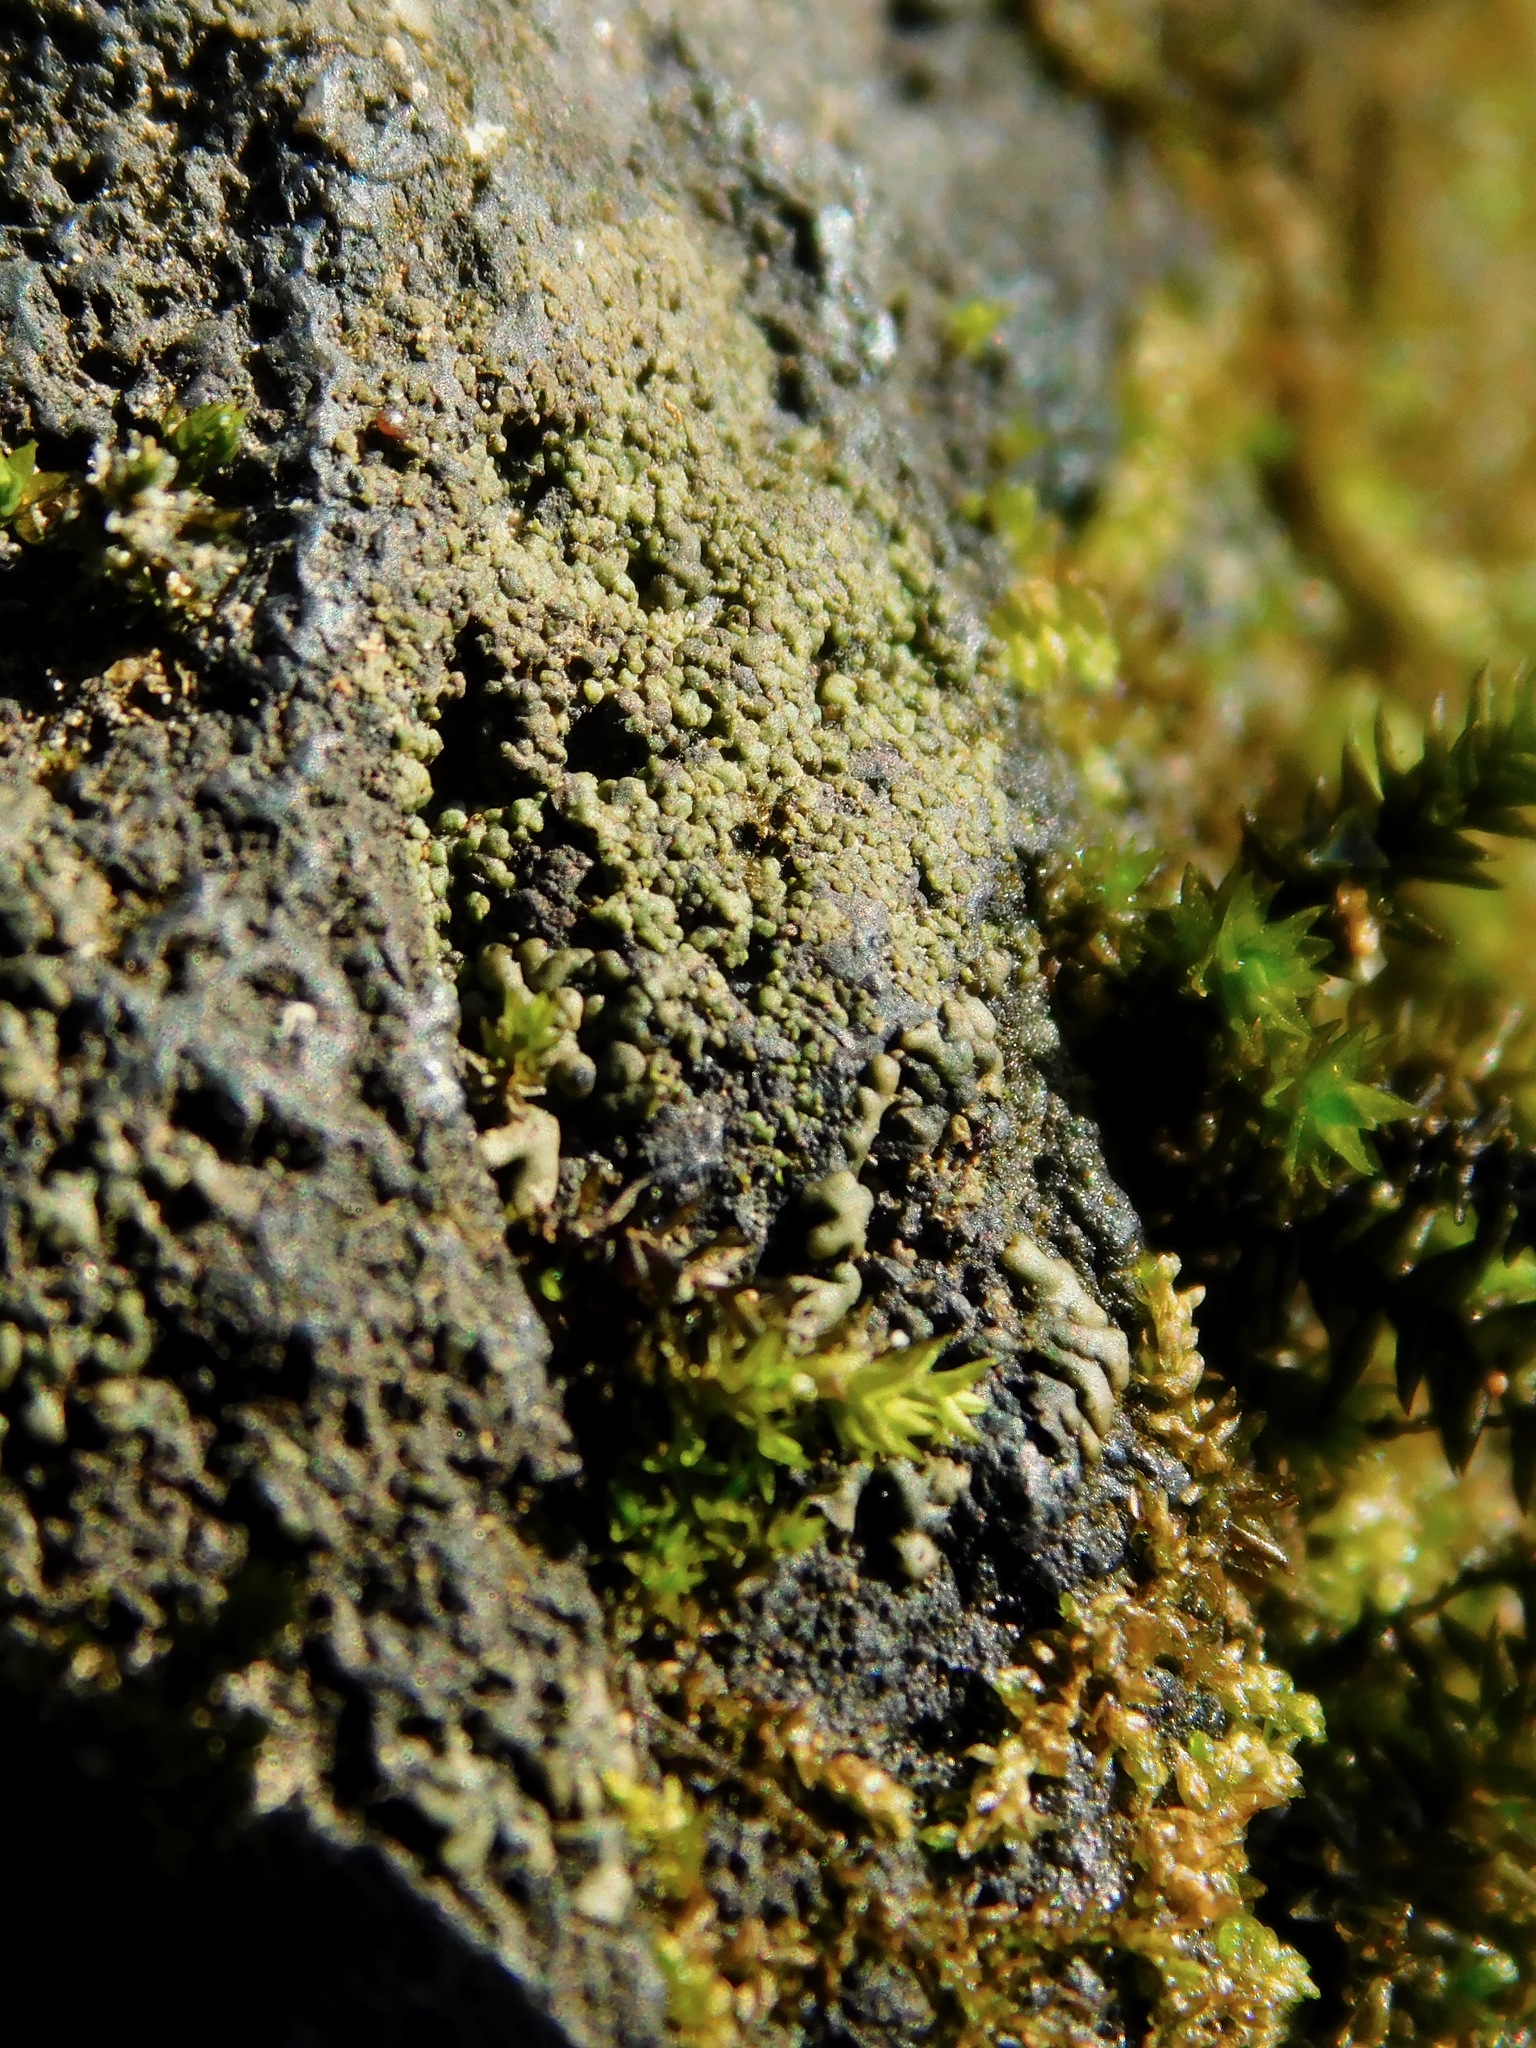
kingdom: Fungi
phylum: Ascomycota
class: Eurotiomycetes
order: Verrucariales
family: Verrucariaceae
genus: Endocarpon
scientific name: Endocarpon petrolepideum
